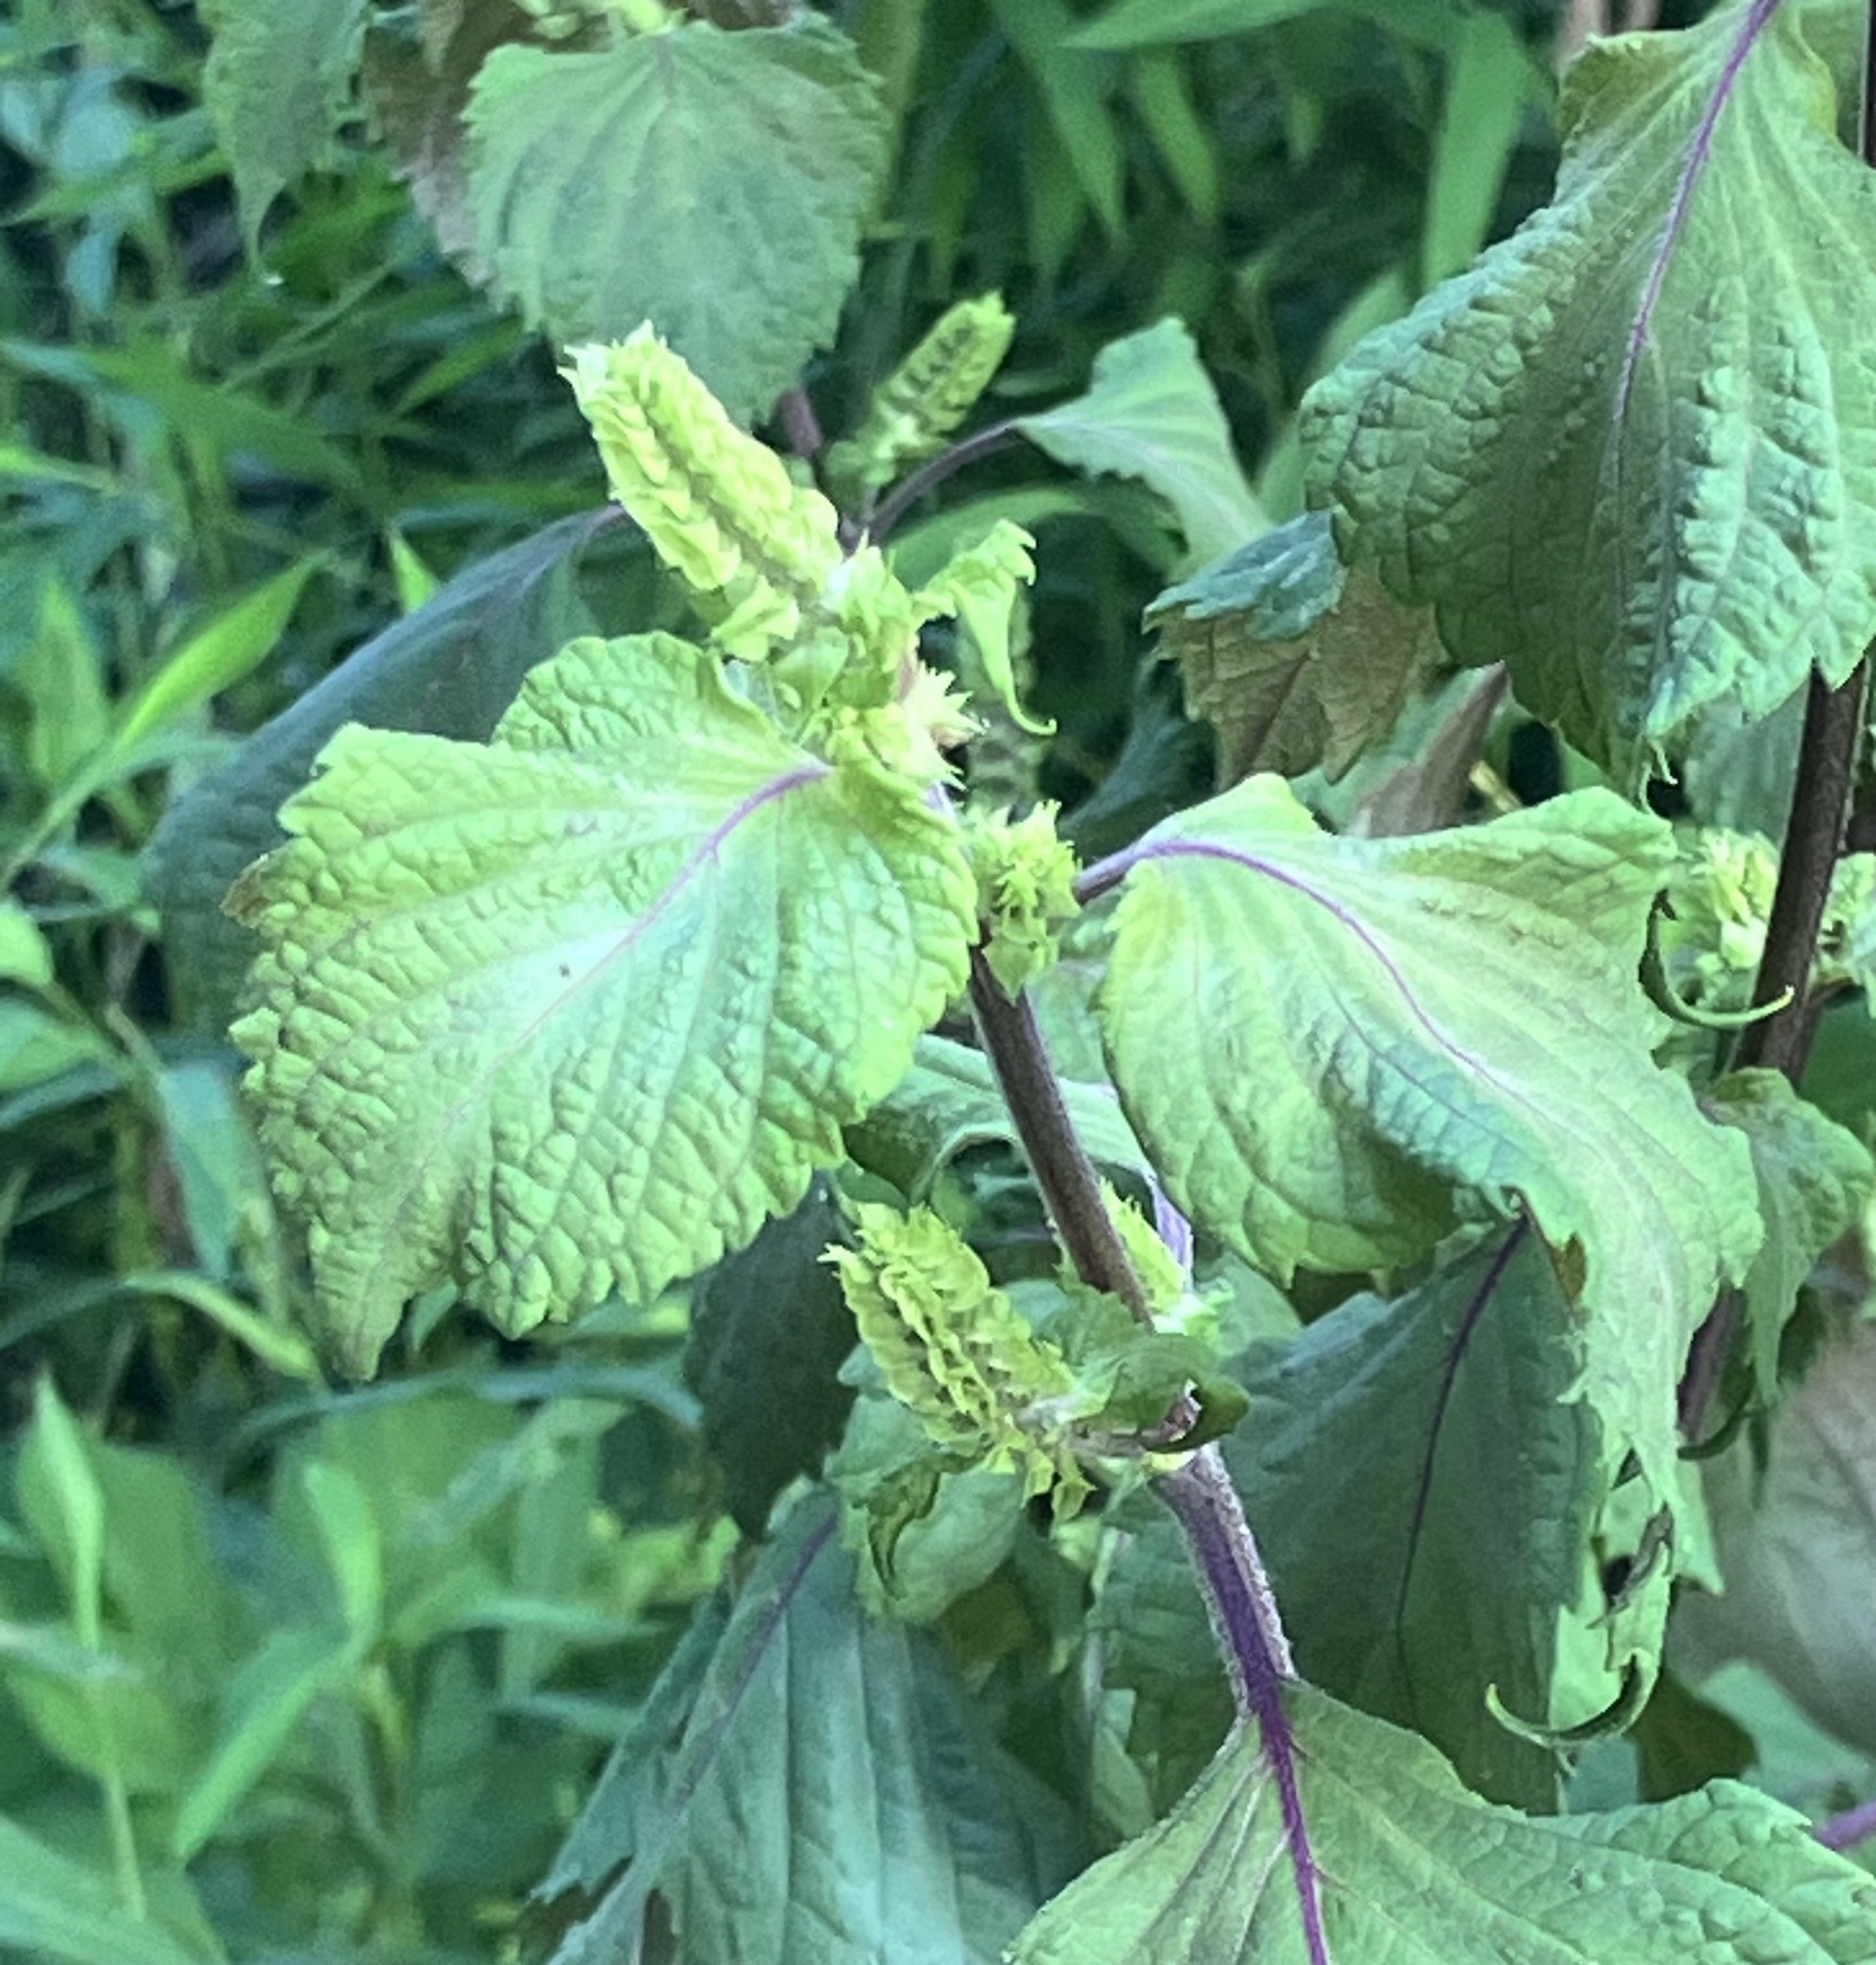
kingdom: Plantae
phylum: Tracheophyta
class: Magnoliopsida
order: Lamiales
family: Lamiaceae
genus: Perilla
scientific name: Perilla frutescens
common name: Perilla
